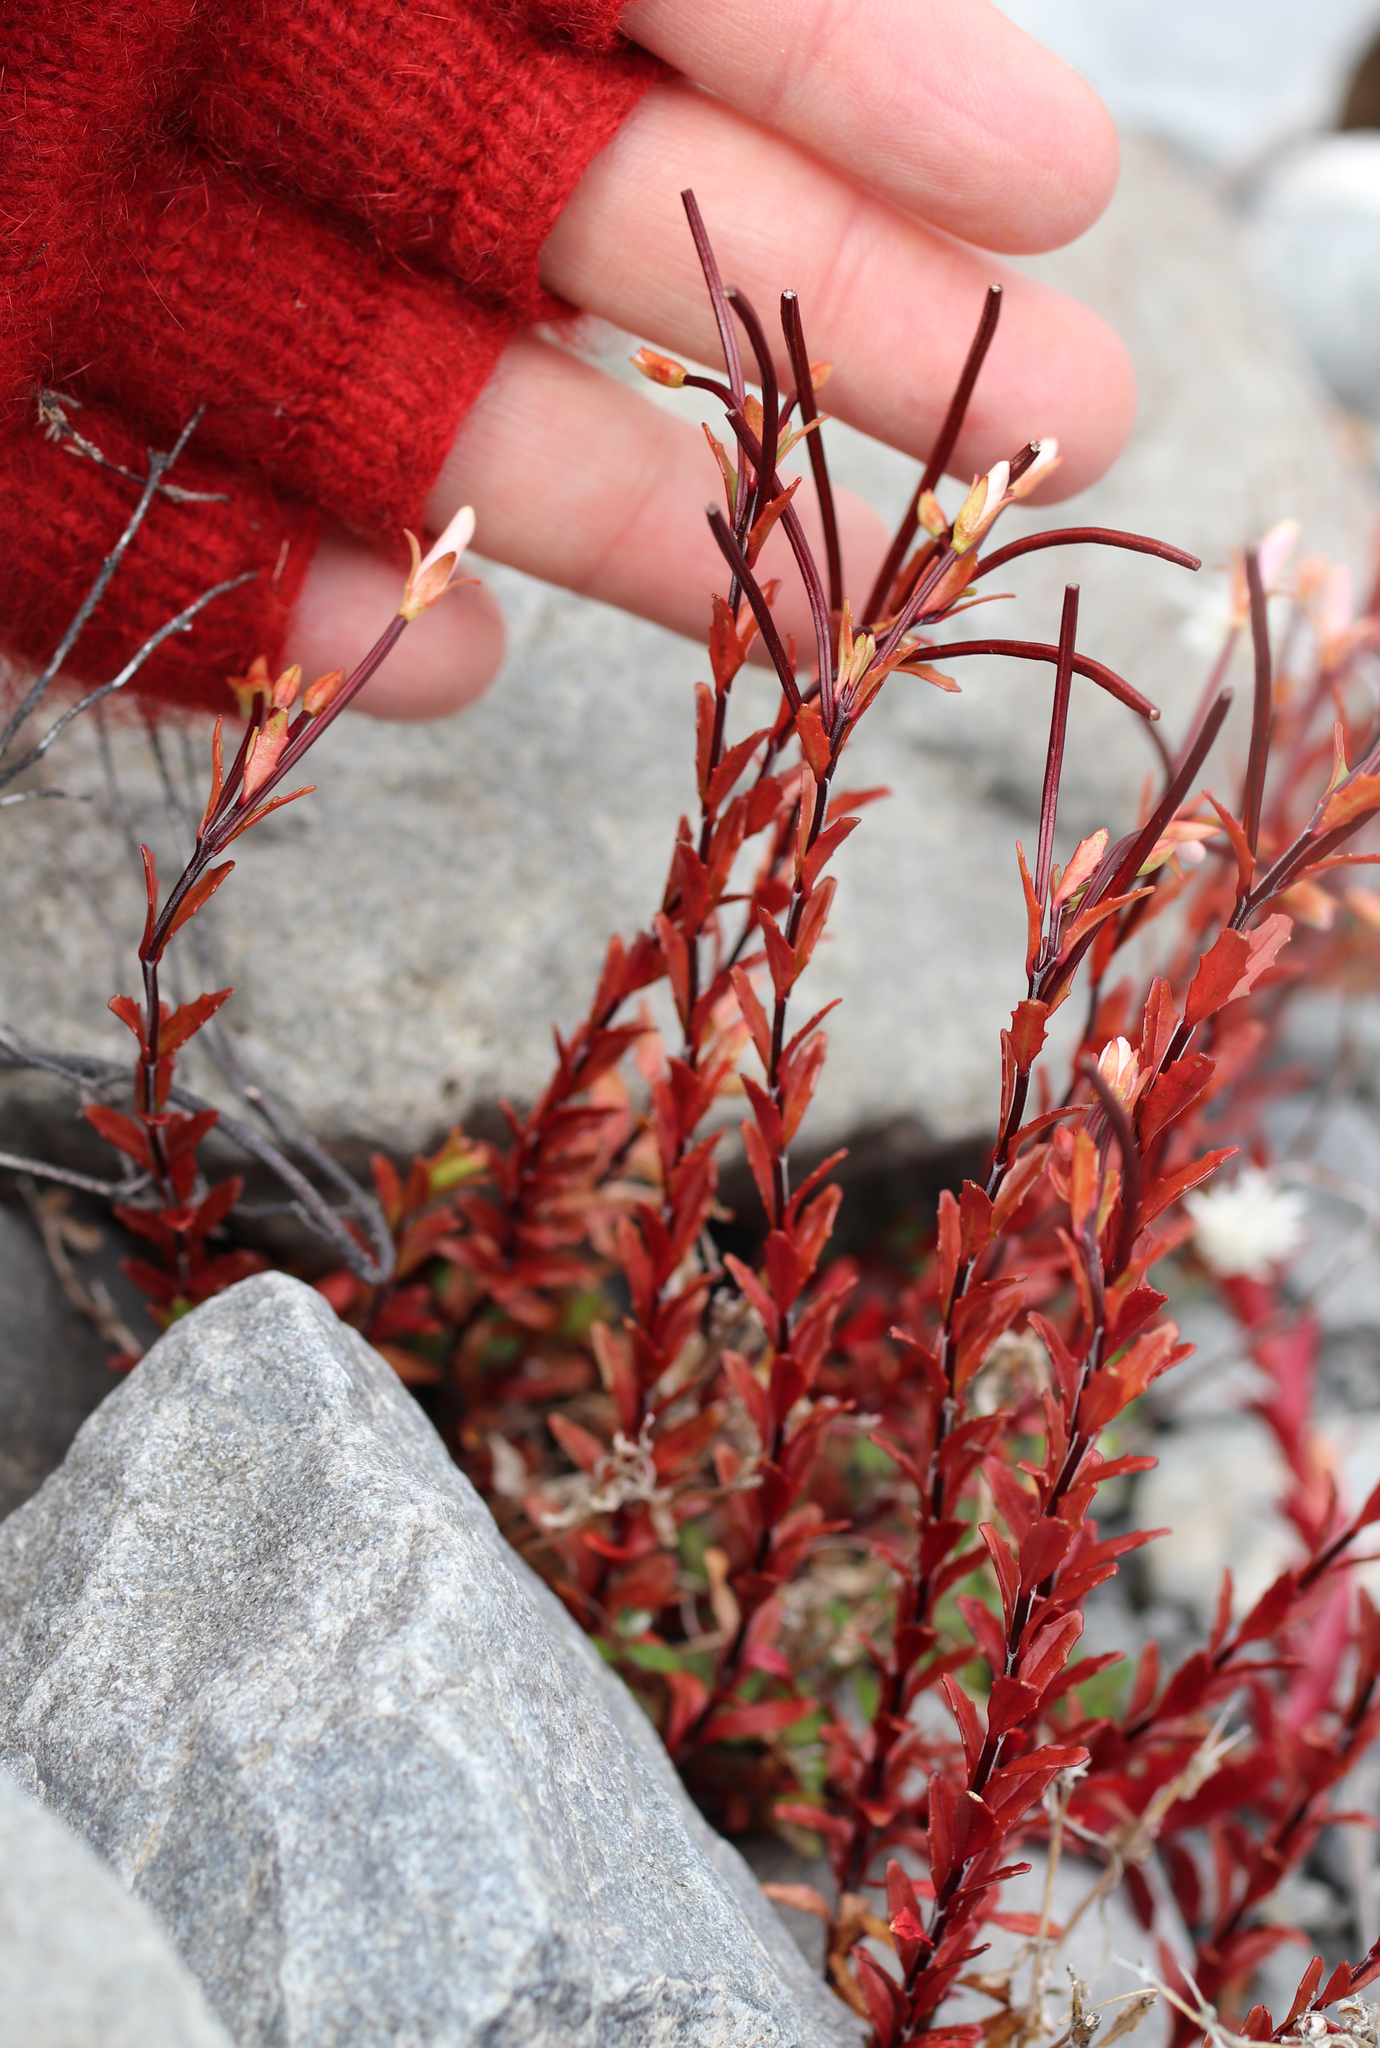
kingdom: Plantae
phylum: Tracheophyta
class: Magnoliopsida
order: Myrtales
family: Onagraceae
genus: Epilobium
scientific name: Epilobium glabellum
